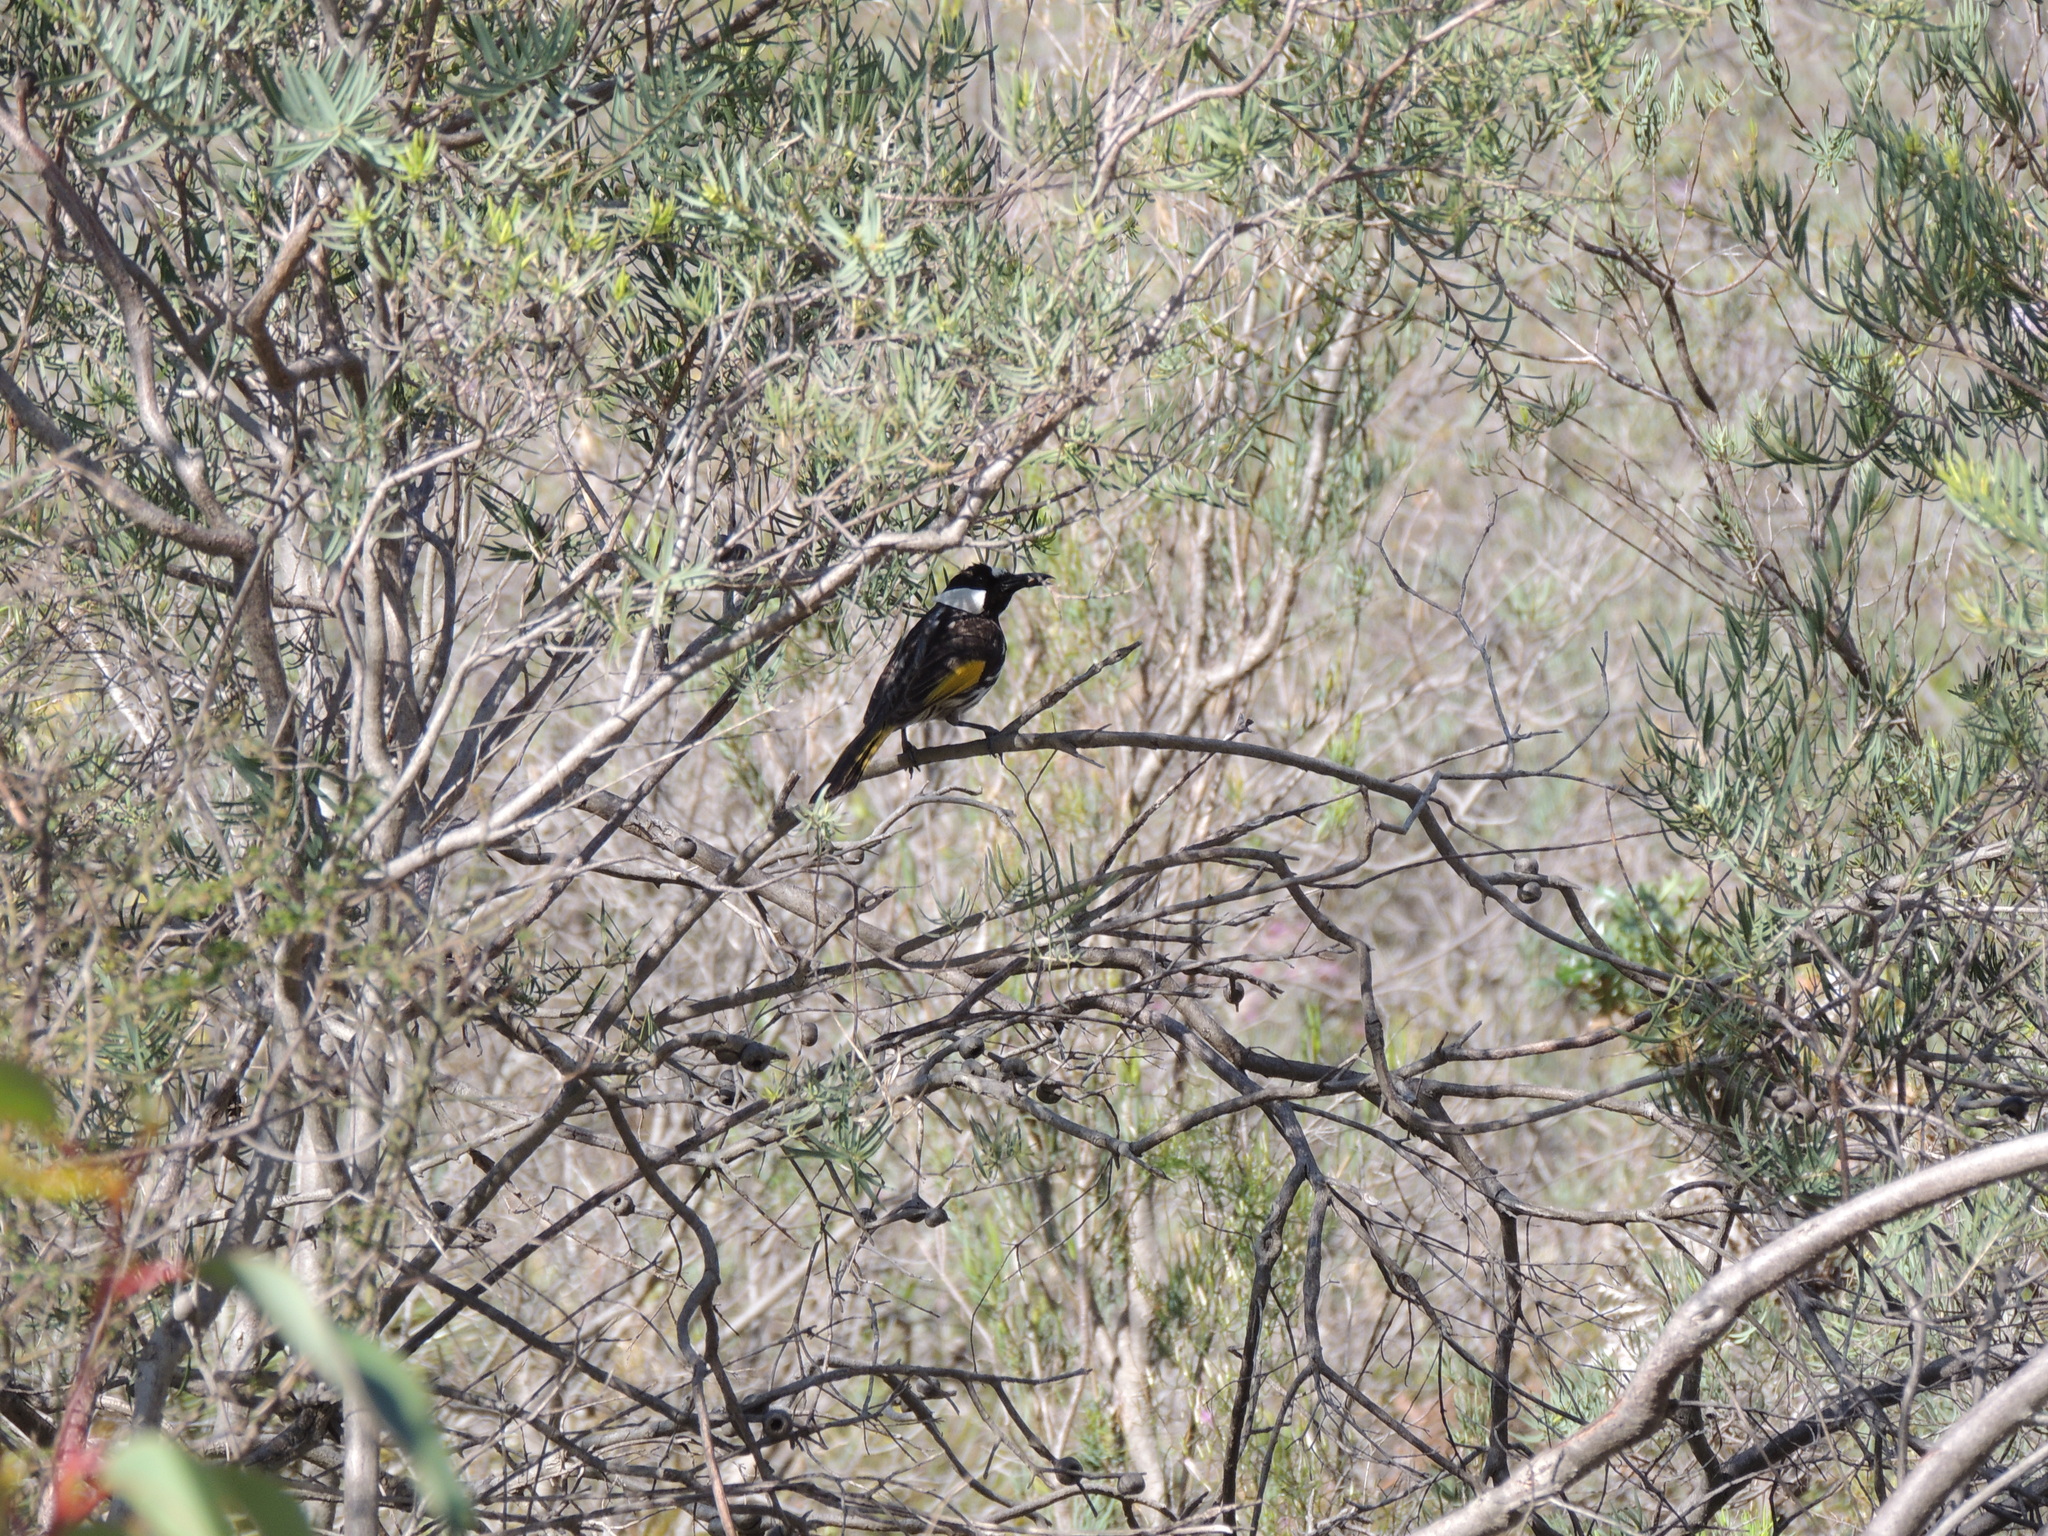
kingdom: Animalia
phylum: Chordata
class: Aves
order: Passeriformes
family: Meliphagidae
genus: Phylidonyris
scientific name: Phylidonyris niger
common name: White-cheeked honeyeater
